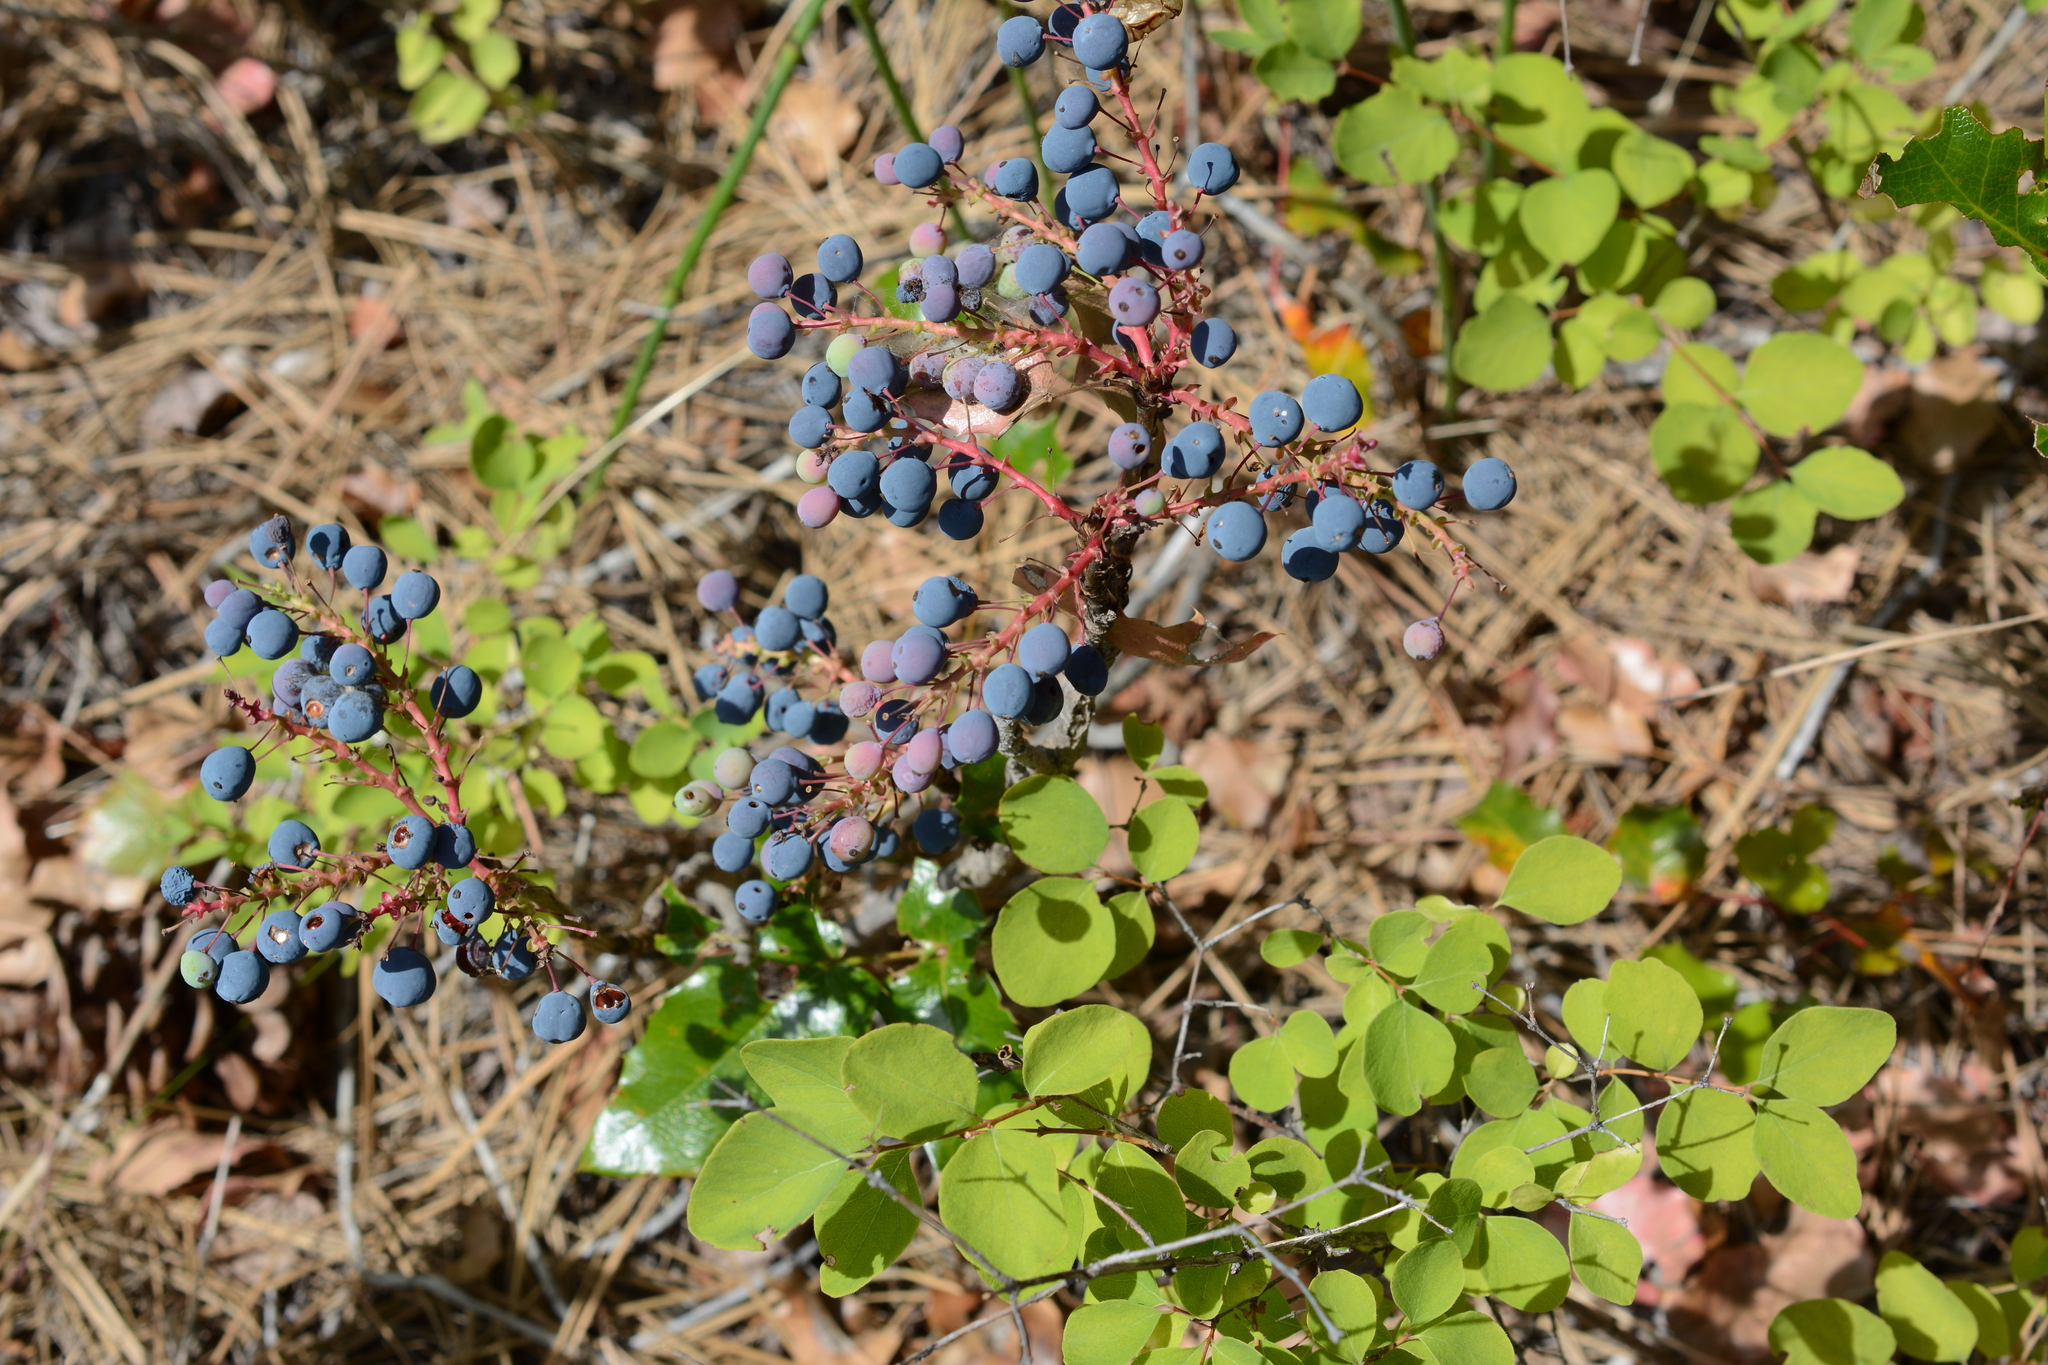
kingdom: Plantae
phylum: Tracheophyta
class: Magnoliopsida
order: Ranunculales
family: Berberidaceae
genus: Mahonia
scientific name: Mahonia aquifolium
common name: Oregon-grape
